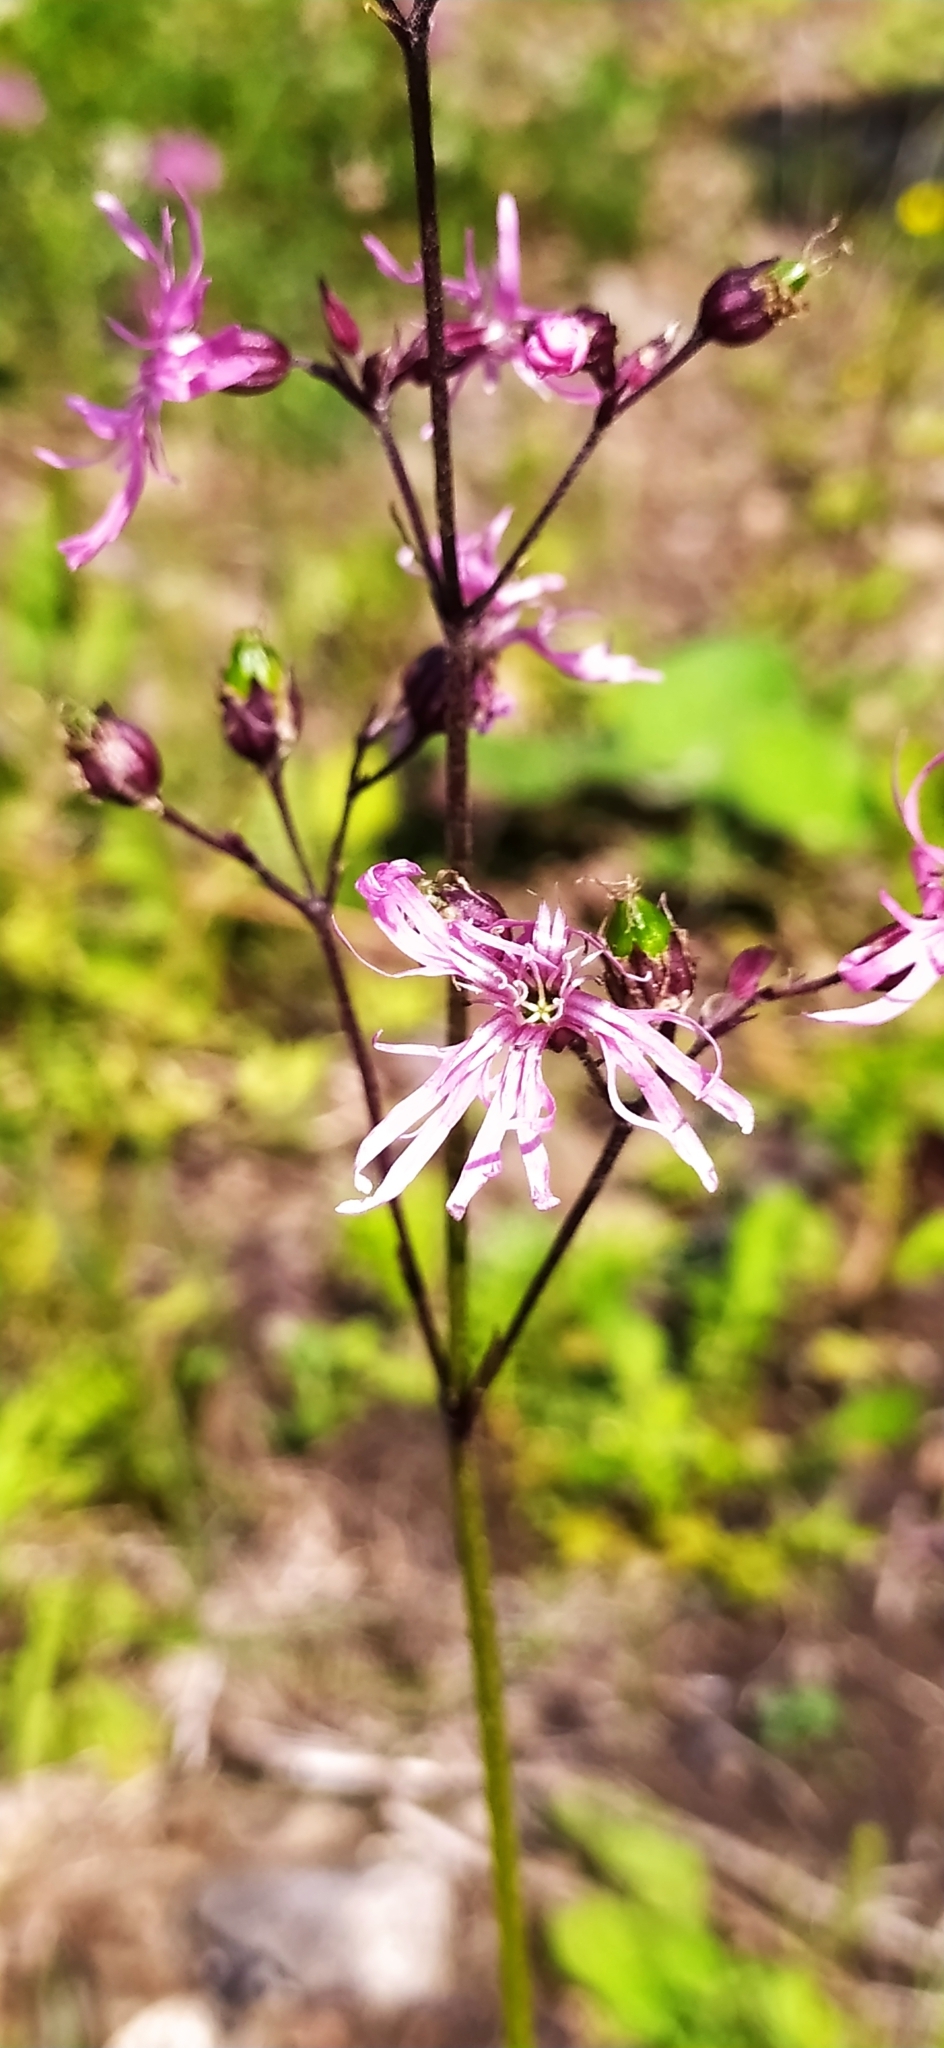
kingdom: Plantae
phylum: Tracheophyta
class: Magnoliopsida
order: Caryophyllales
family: Caryophyllaceae
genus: Silene
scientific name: Silene flos-cuculi
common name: Ragged-robin
